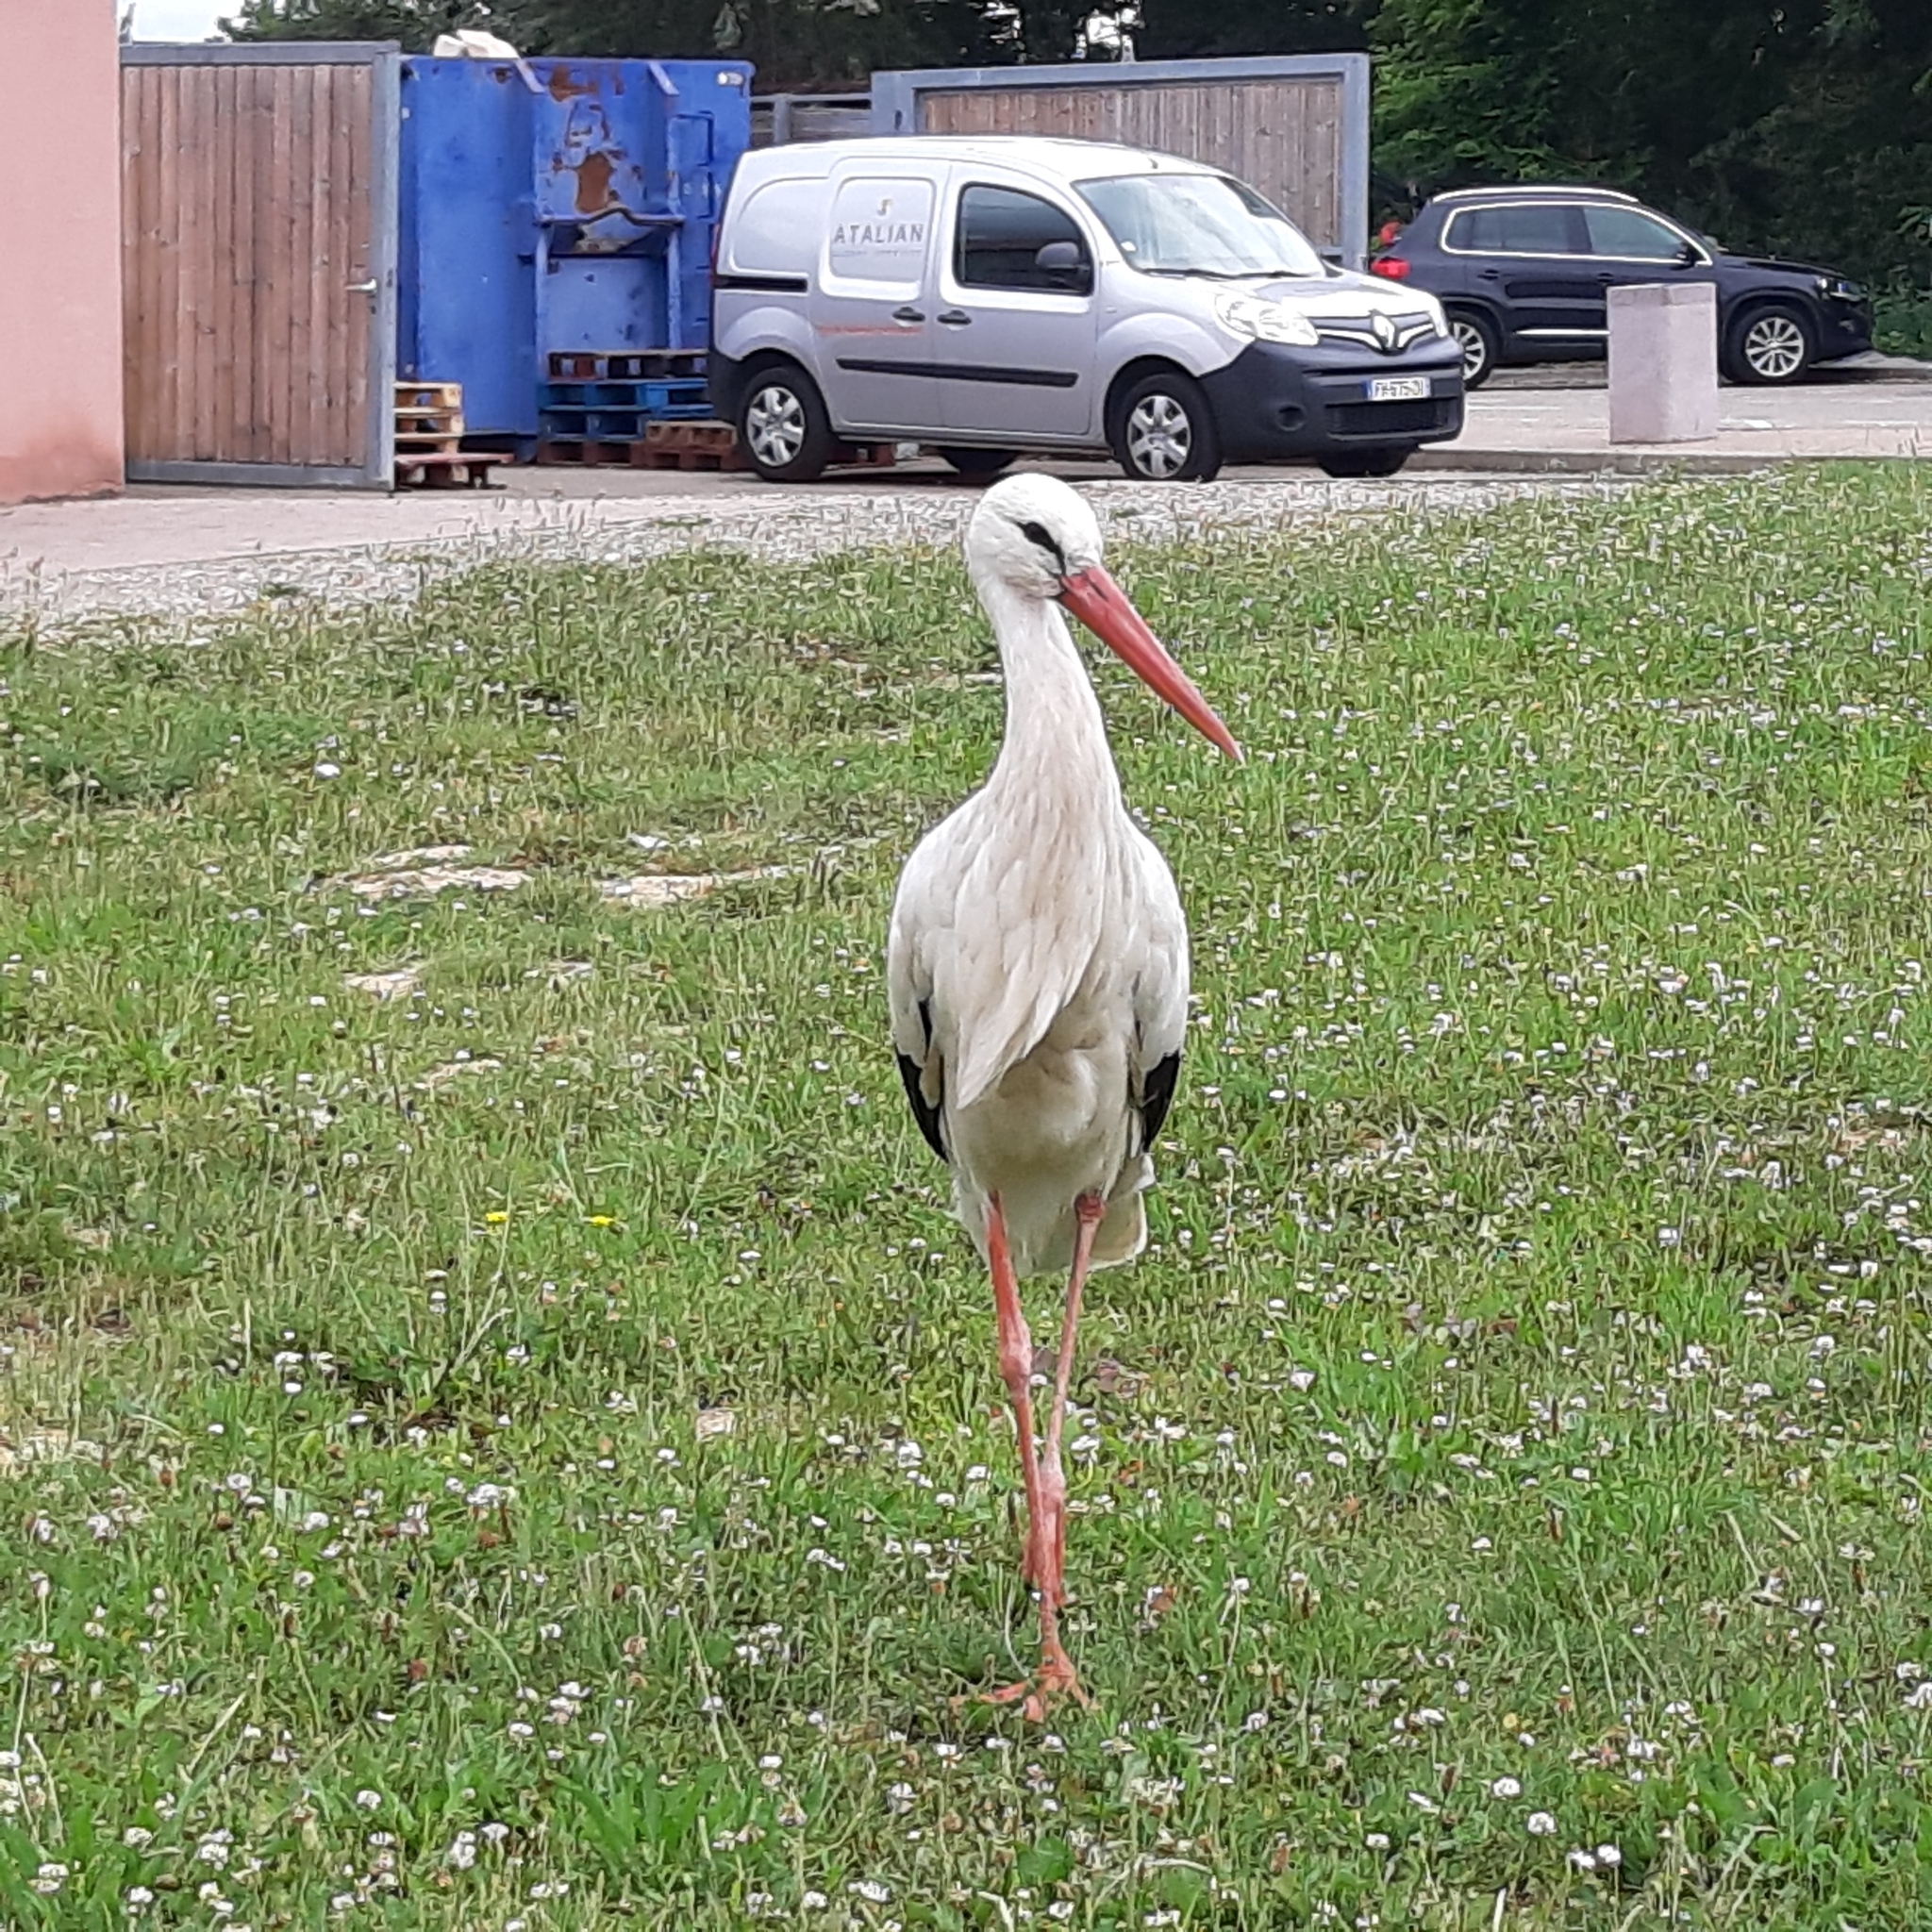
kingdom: Animalia
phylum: Chordata
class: Aves
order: Ciconiiformes
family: Ciconiidae
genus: Ciconia
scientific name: Ciconia ciconia
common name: White stork
